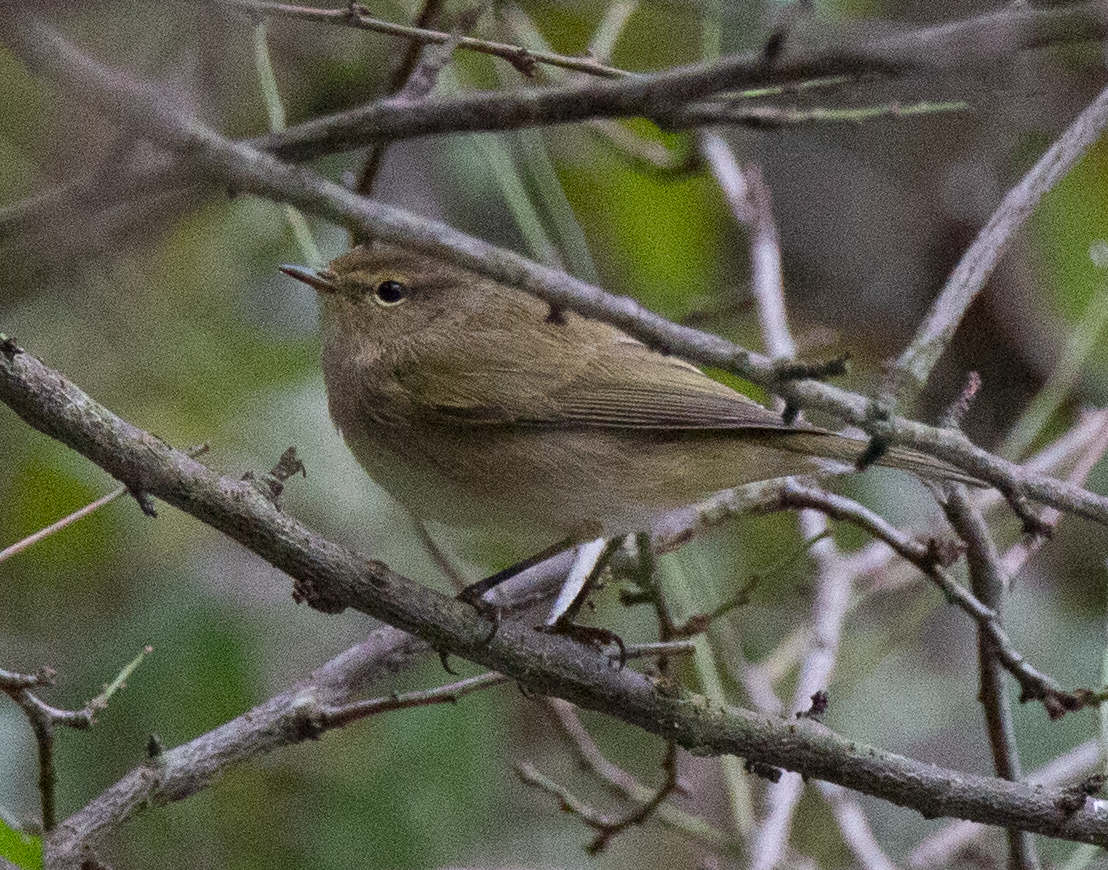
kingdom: Animalia
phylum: Chordata
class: Aves
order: Passeriformes
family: Phylloscopidae
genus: Phylloscopus
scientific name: Phylloscopus collybita
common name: Common chiffchaff
